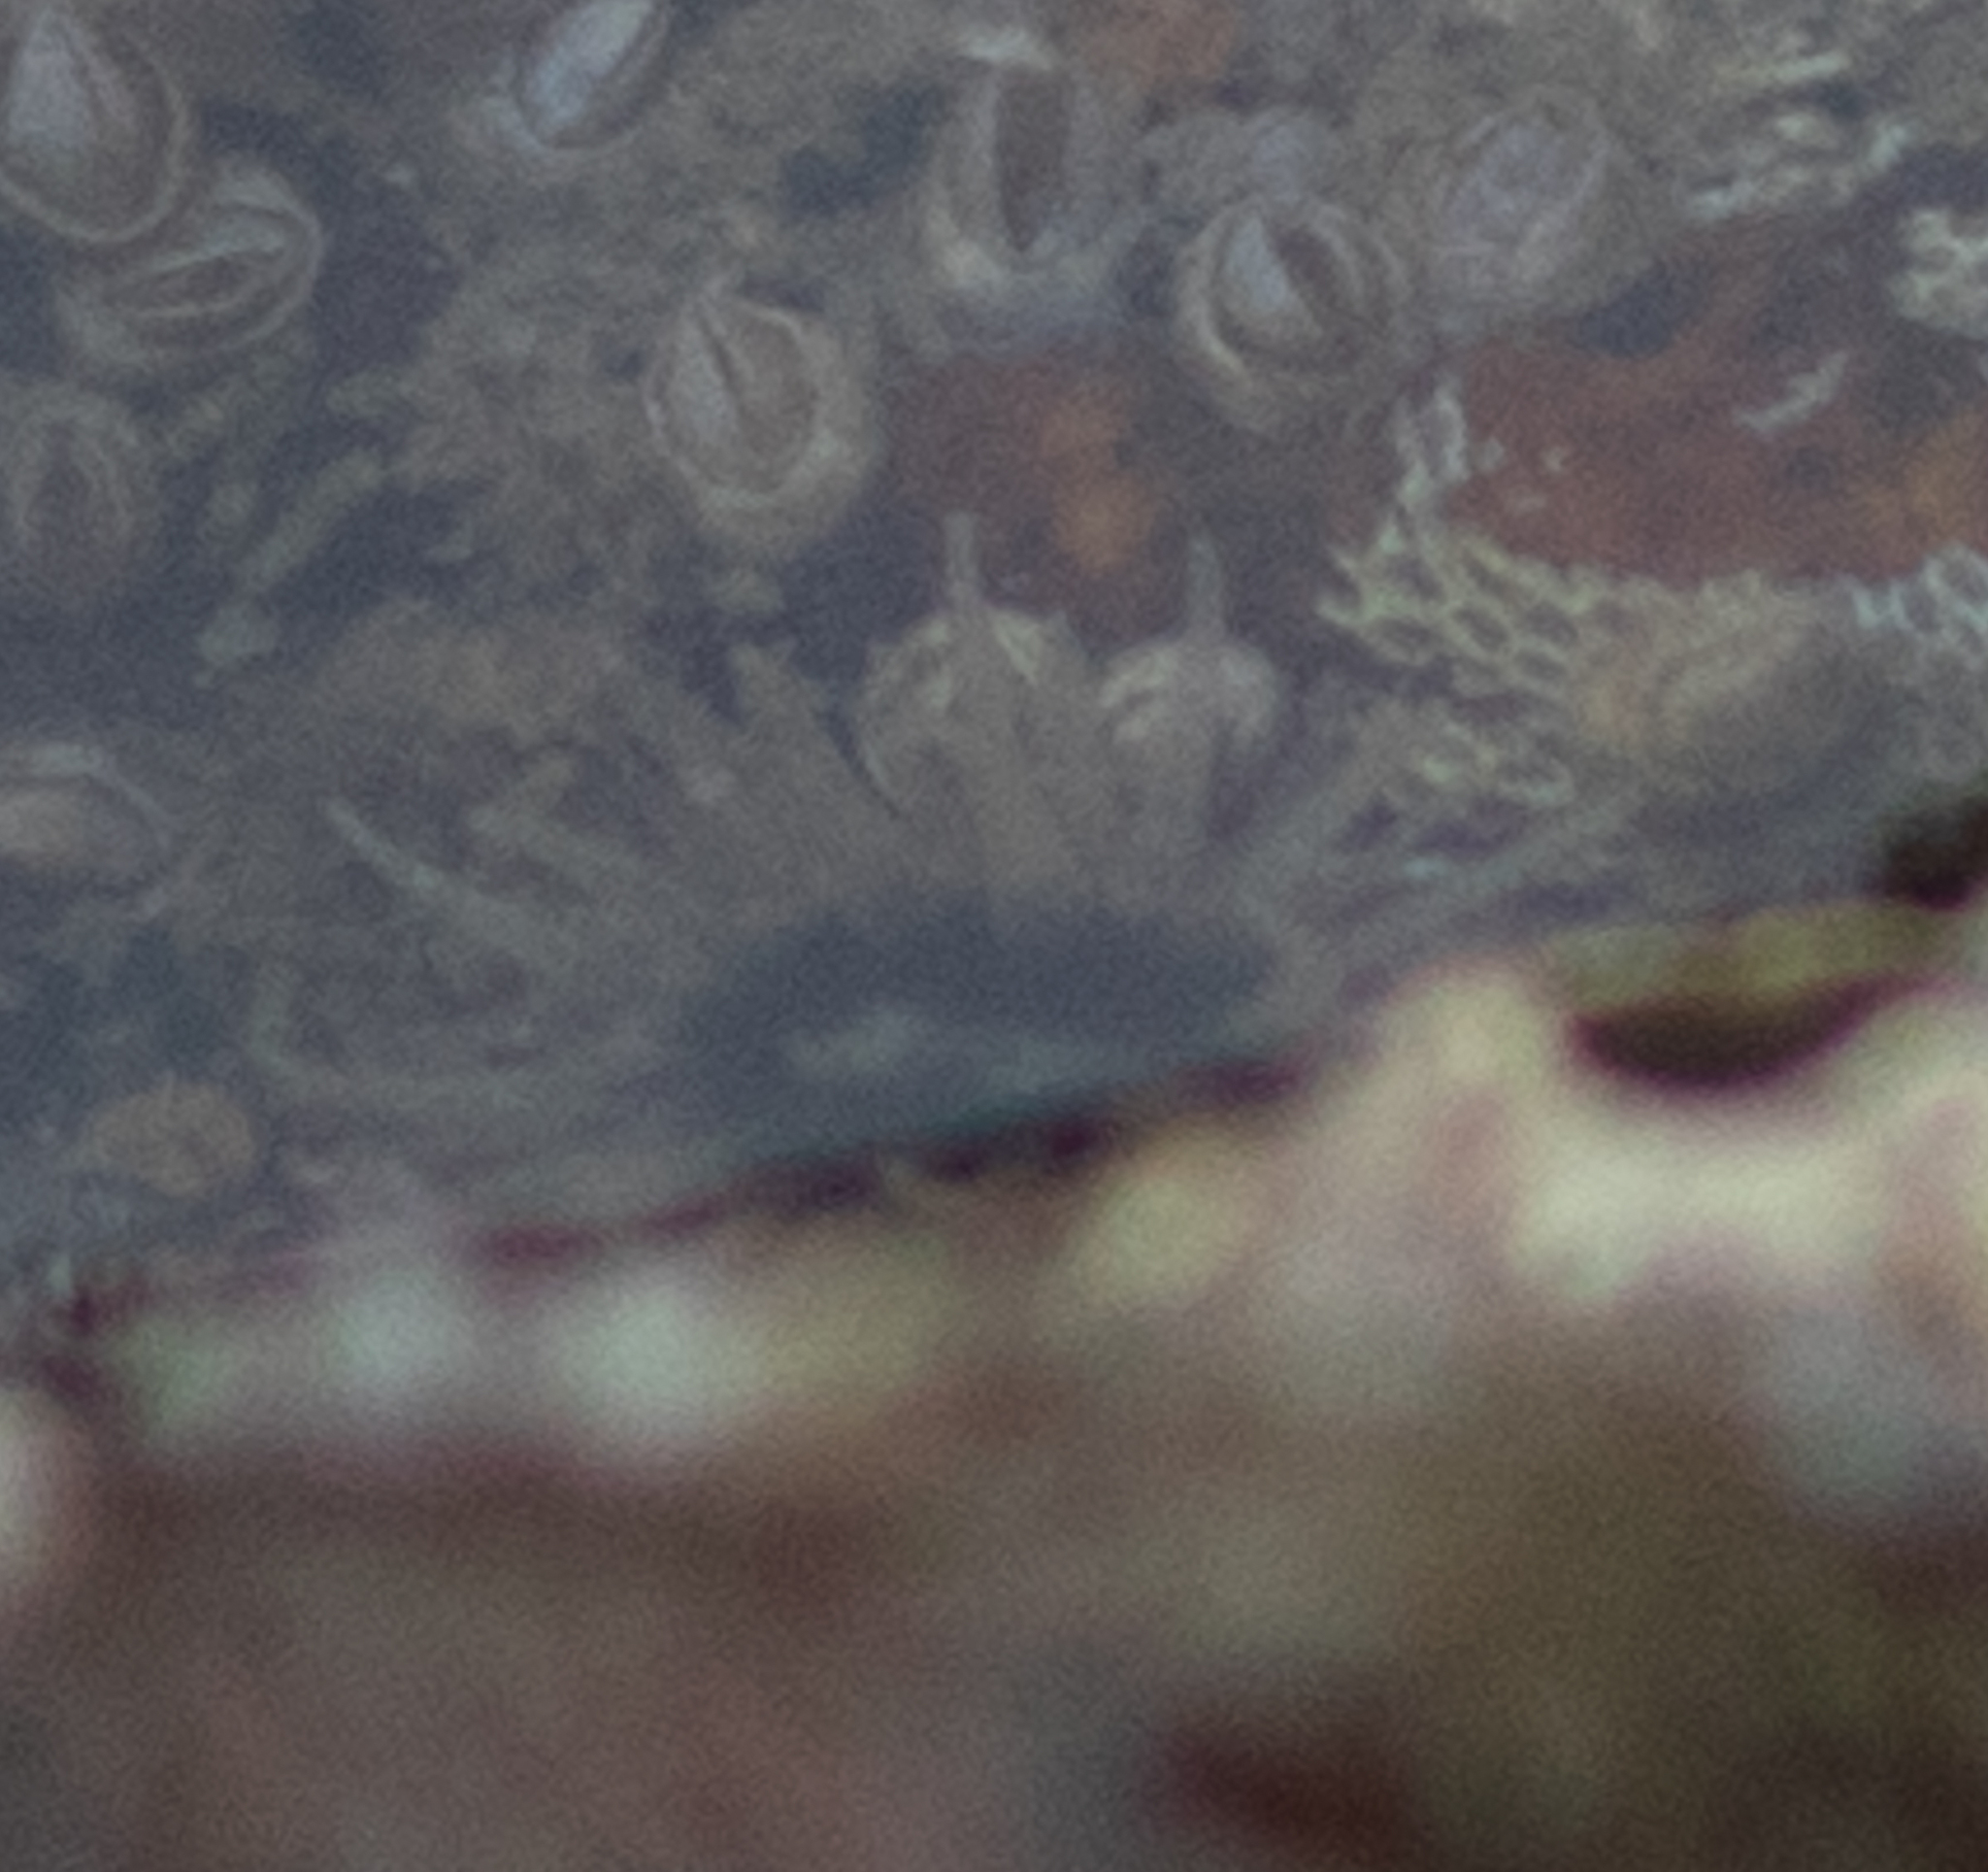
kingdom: Animalia
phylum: Cnidaria
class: Anthozoa
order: Actiniaria
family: Diadumenidae
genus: Diadumene
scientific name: Diadumene lineata
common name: Orange-striped anemone
